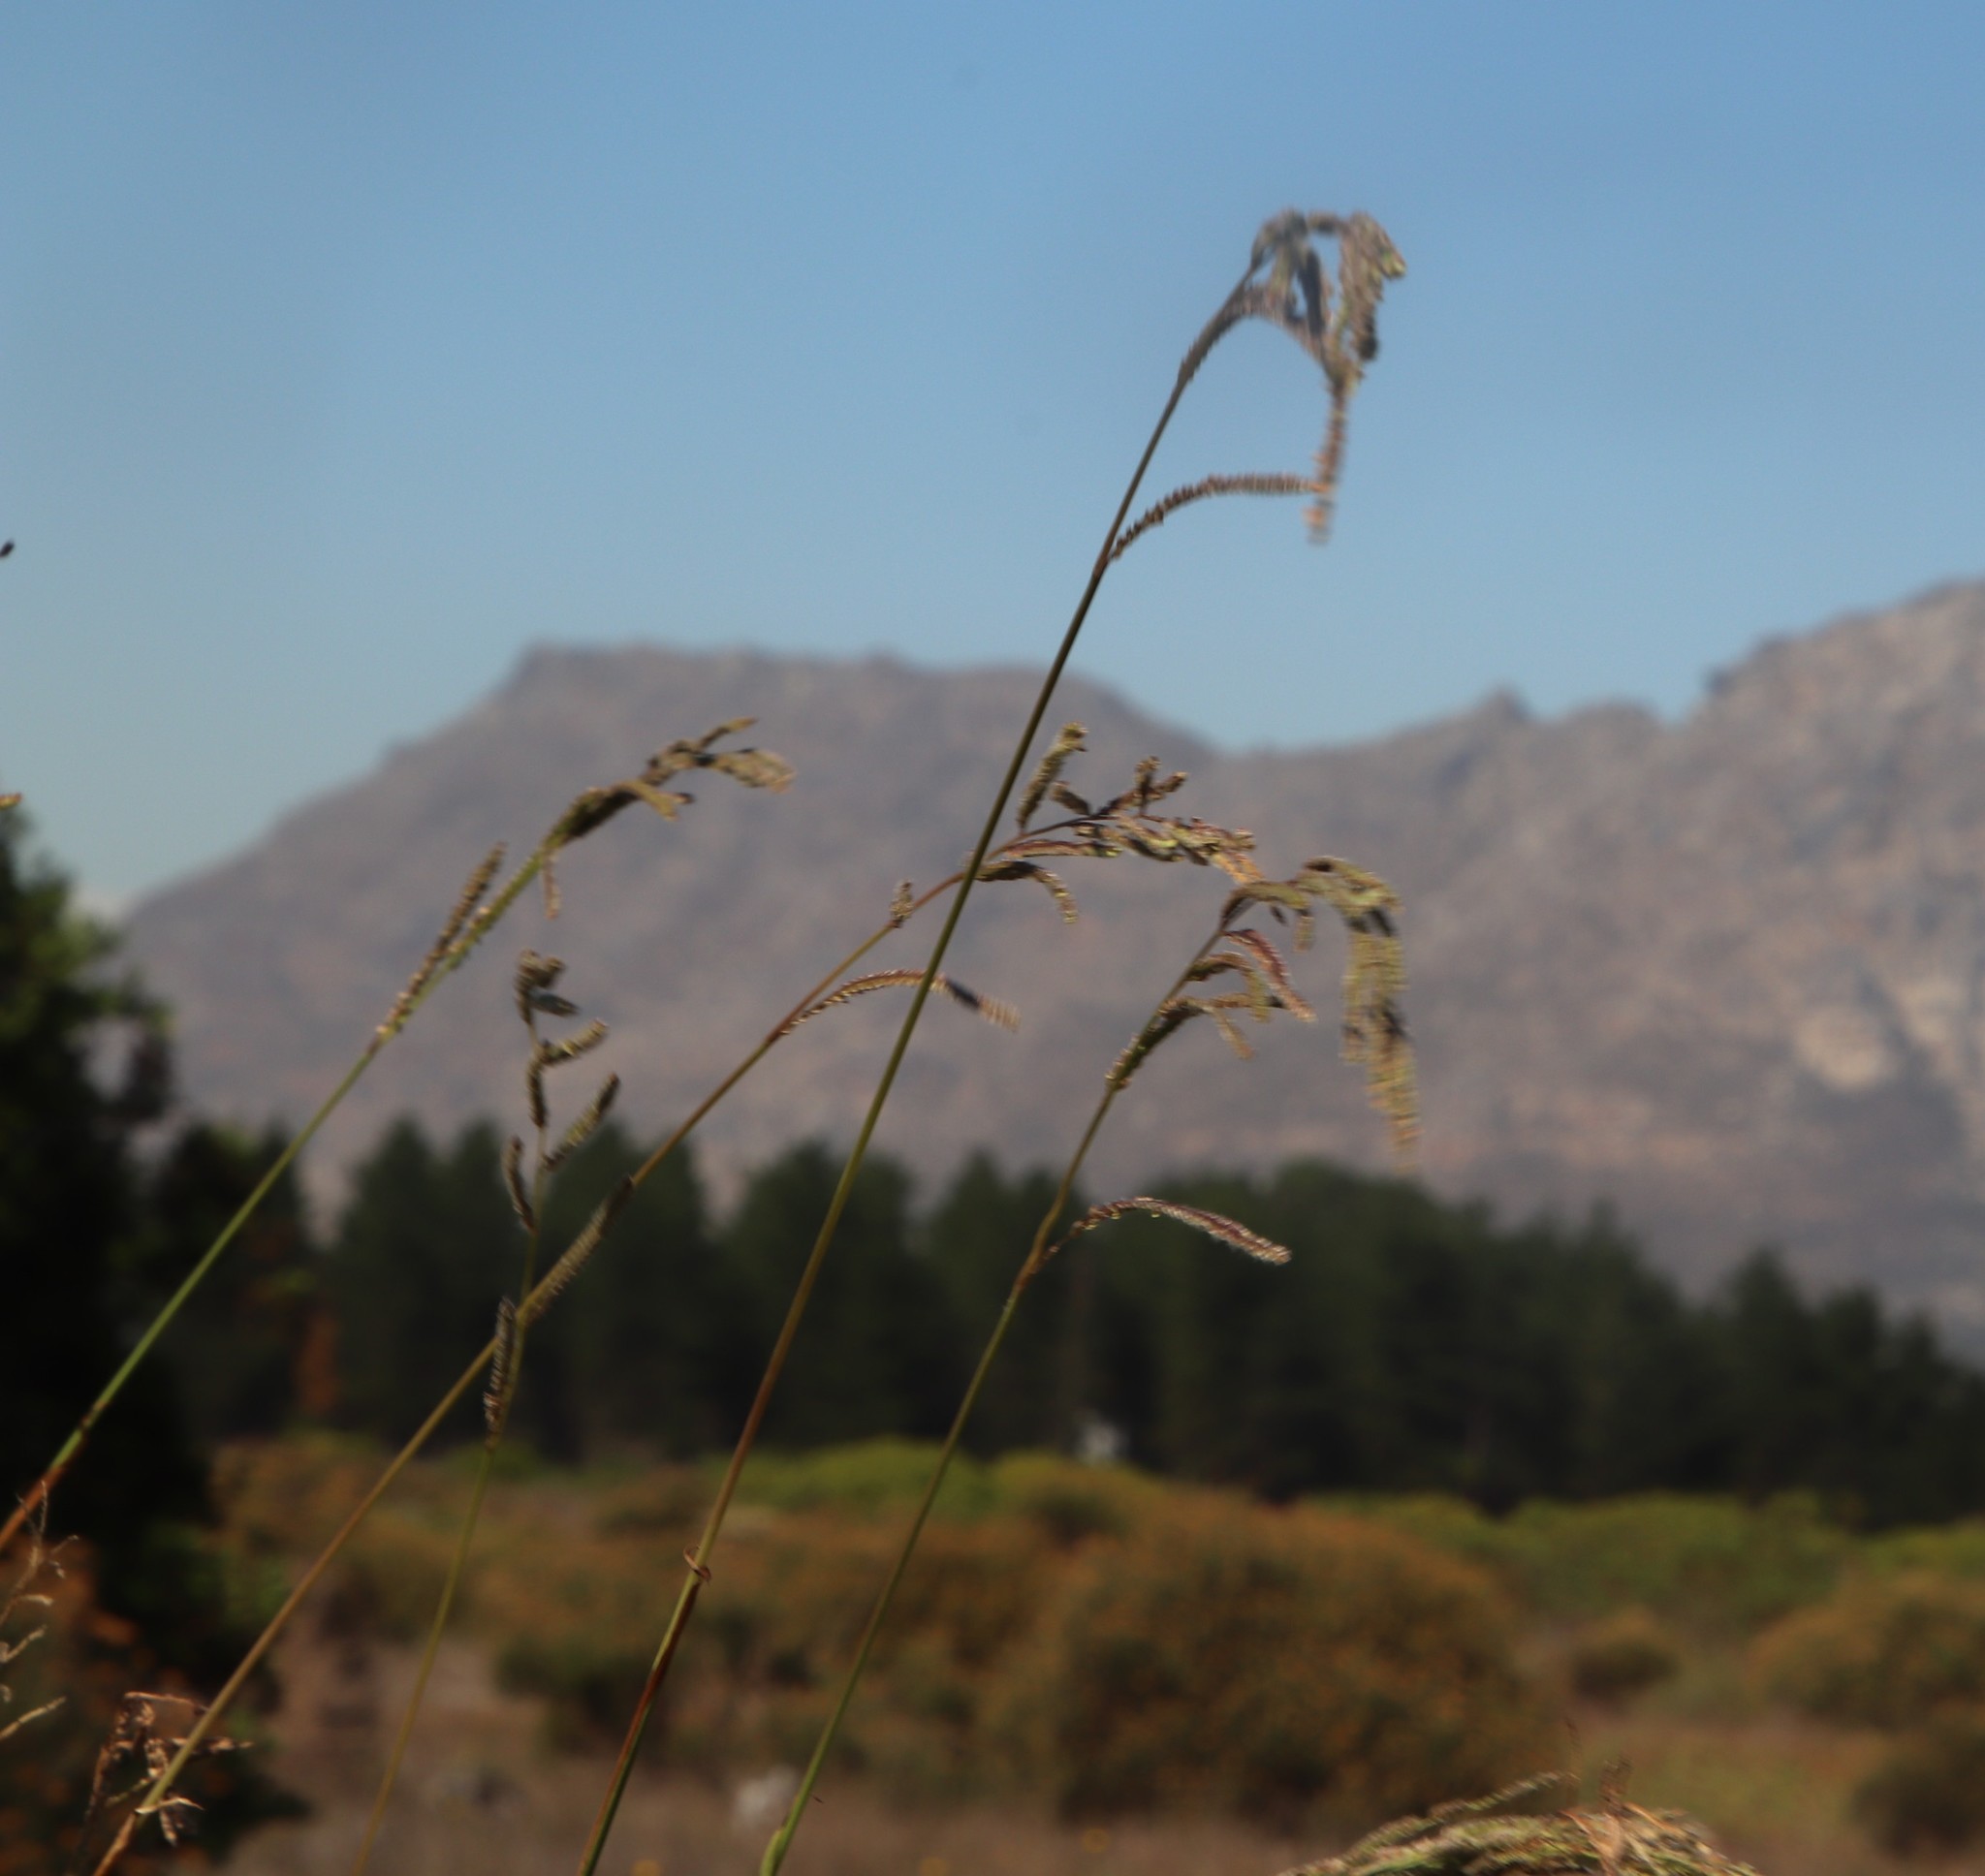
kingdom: Plantae
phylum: Tracheophyta
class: Liliopsida
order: Poales
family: Poaceae
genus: Paspalum
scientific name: Paspalum urvillei
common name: Vasey's grass
